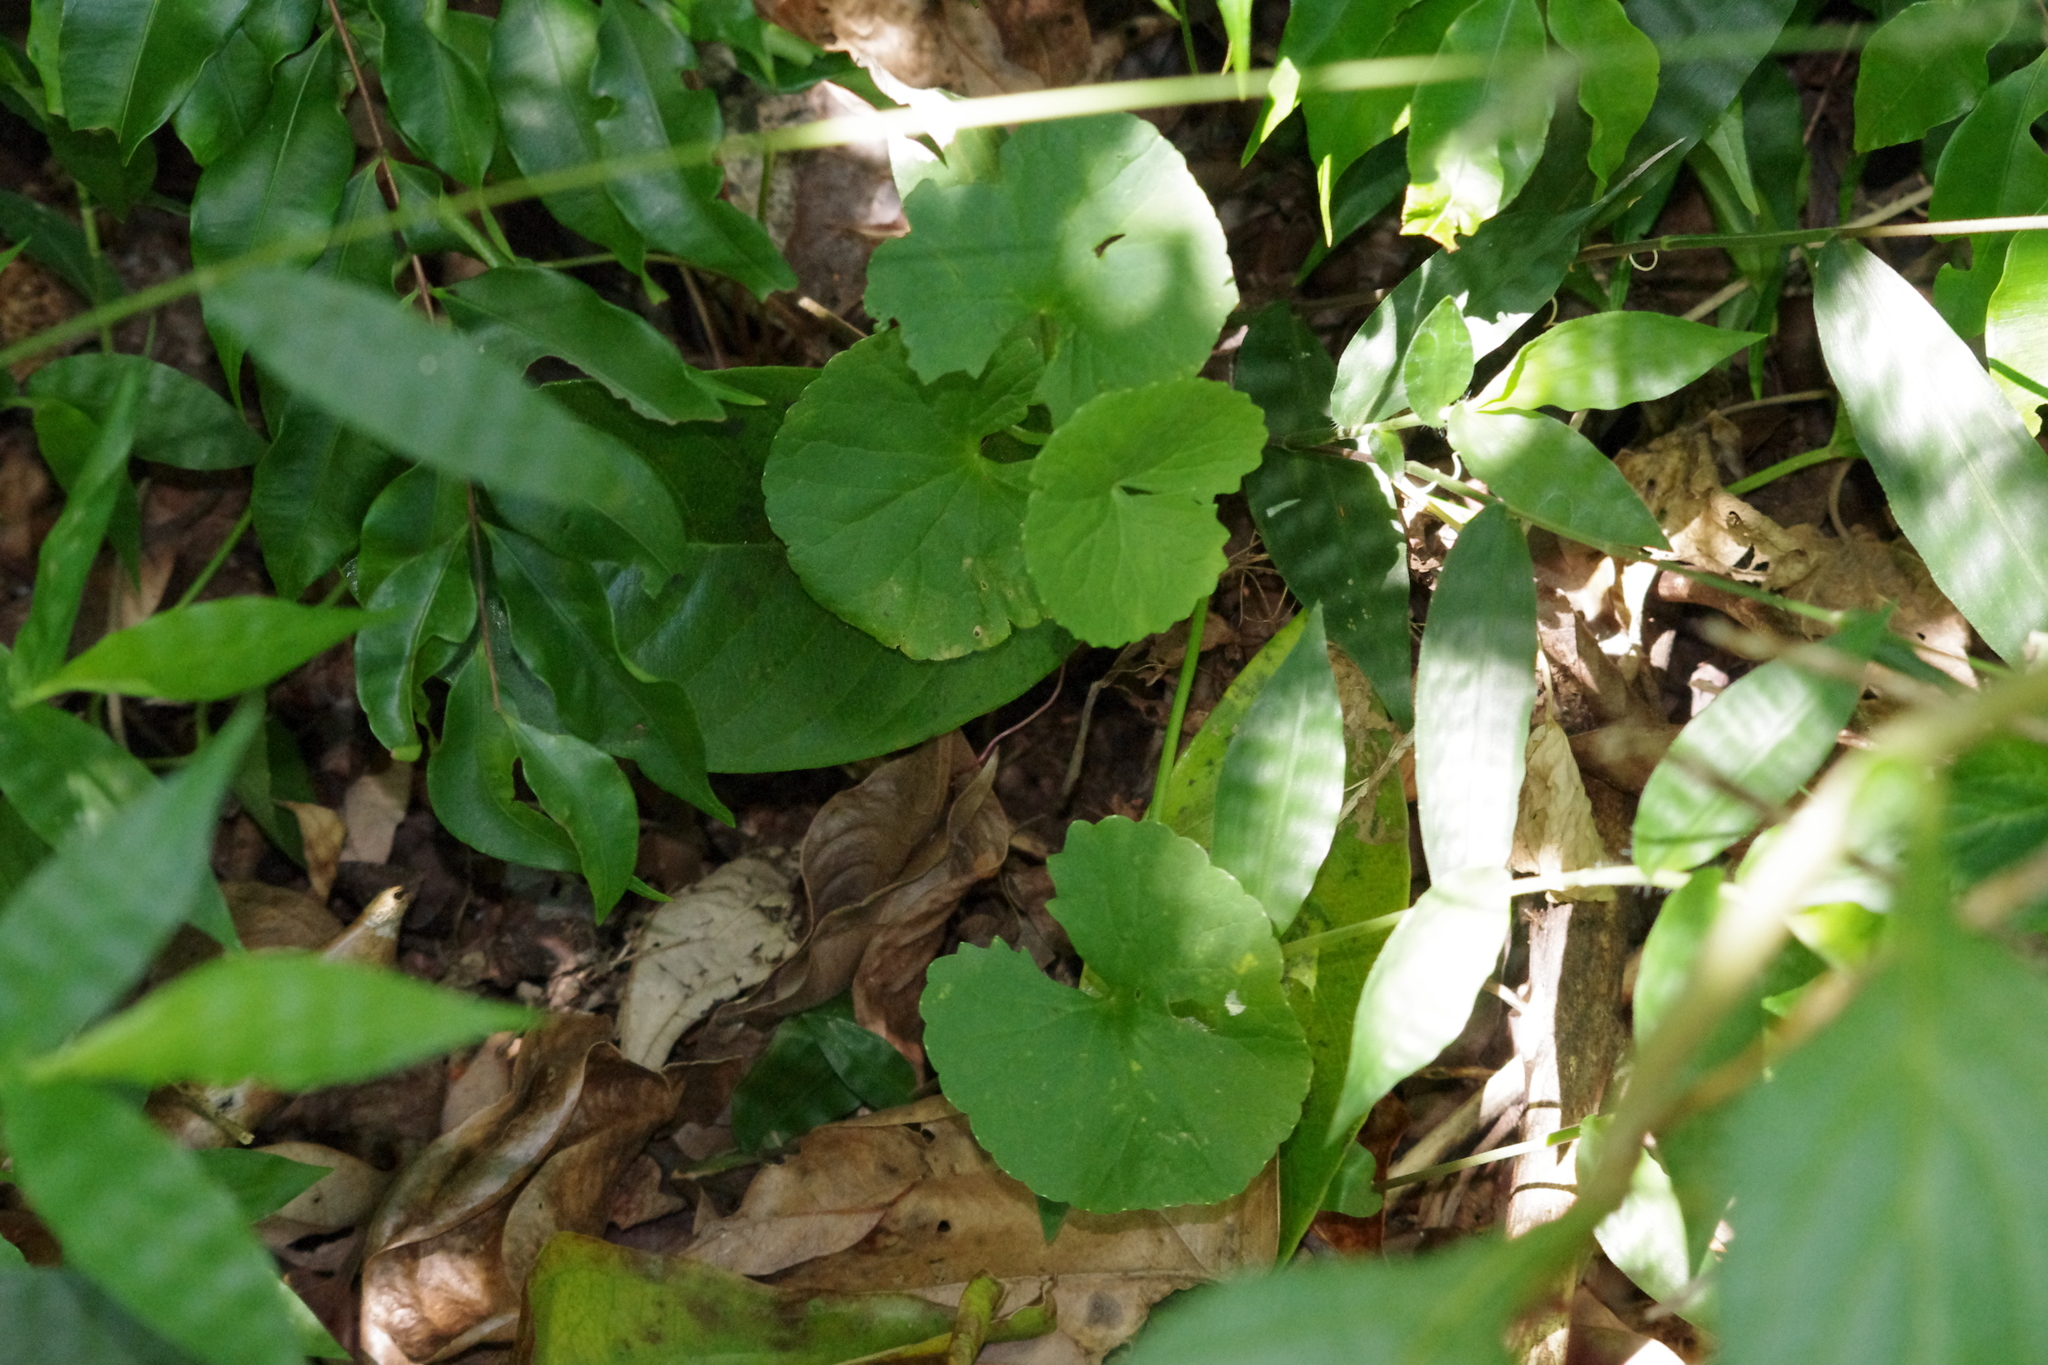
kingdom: Plantae
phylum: Tracheophyta
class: Magnoliopsida
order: Apiales
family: Apiaceae
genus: Centella
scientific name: Centella asiatica
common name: Spadeleaf
